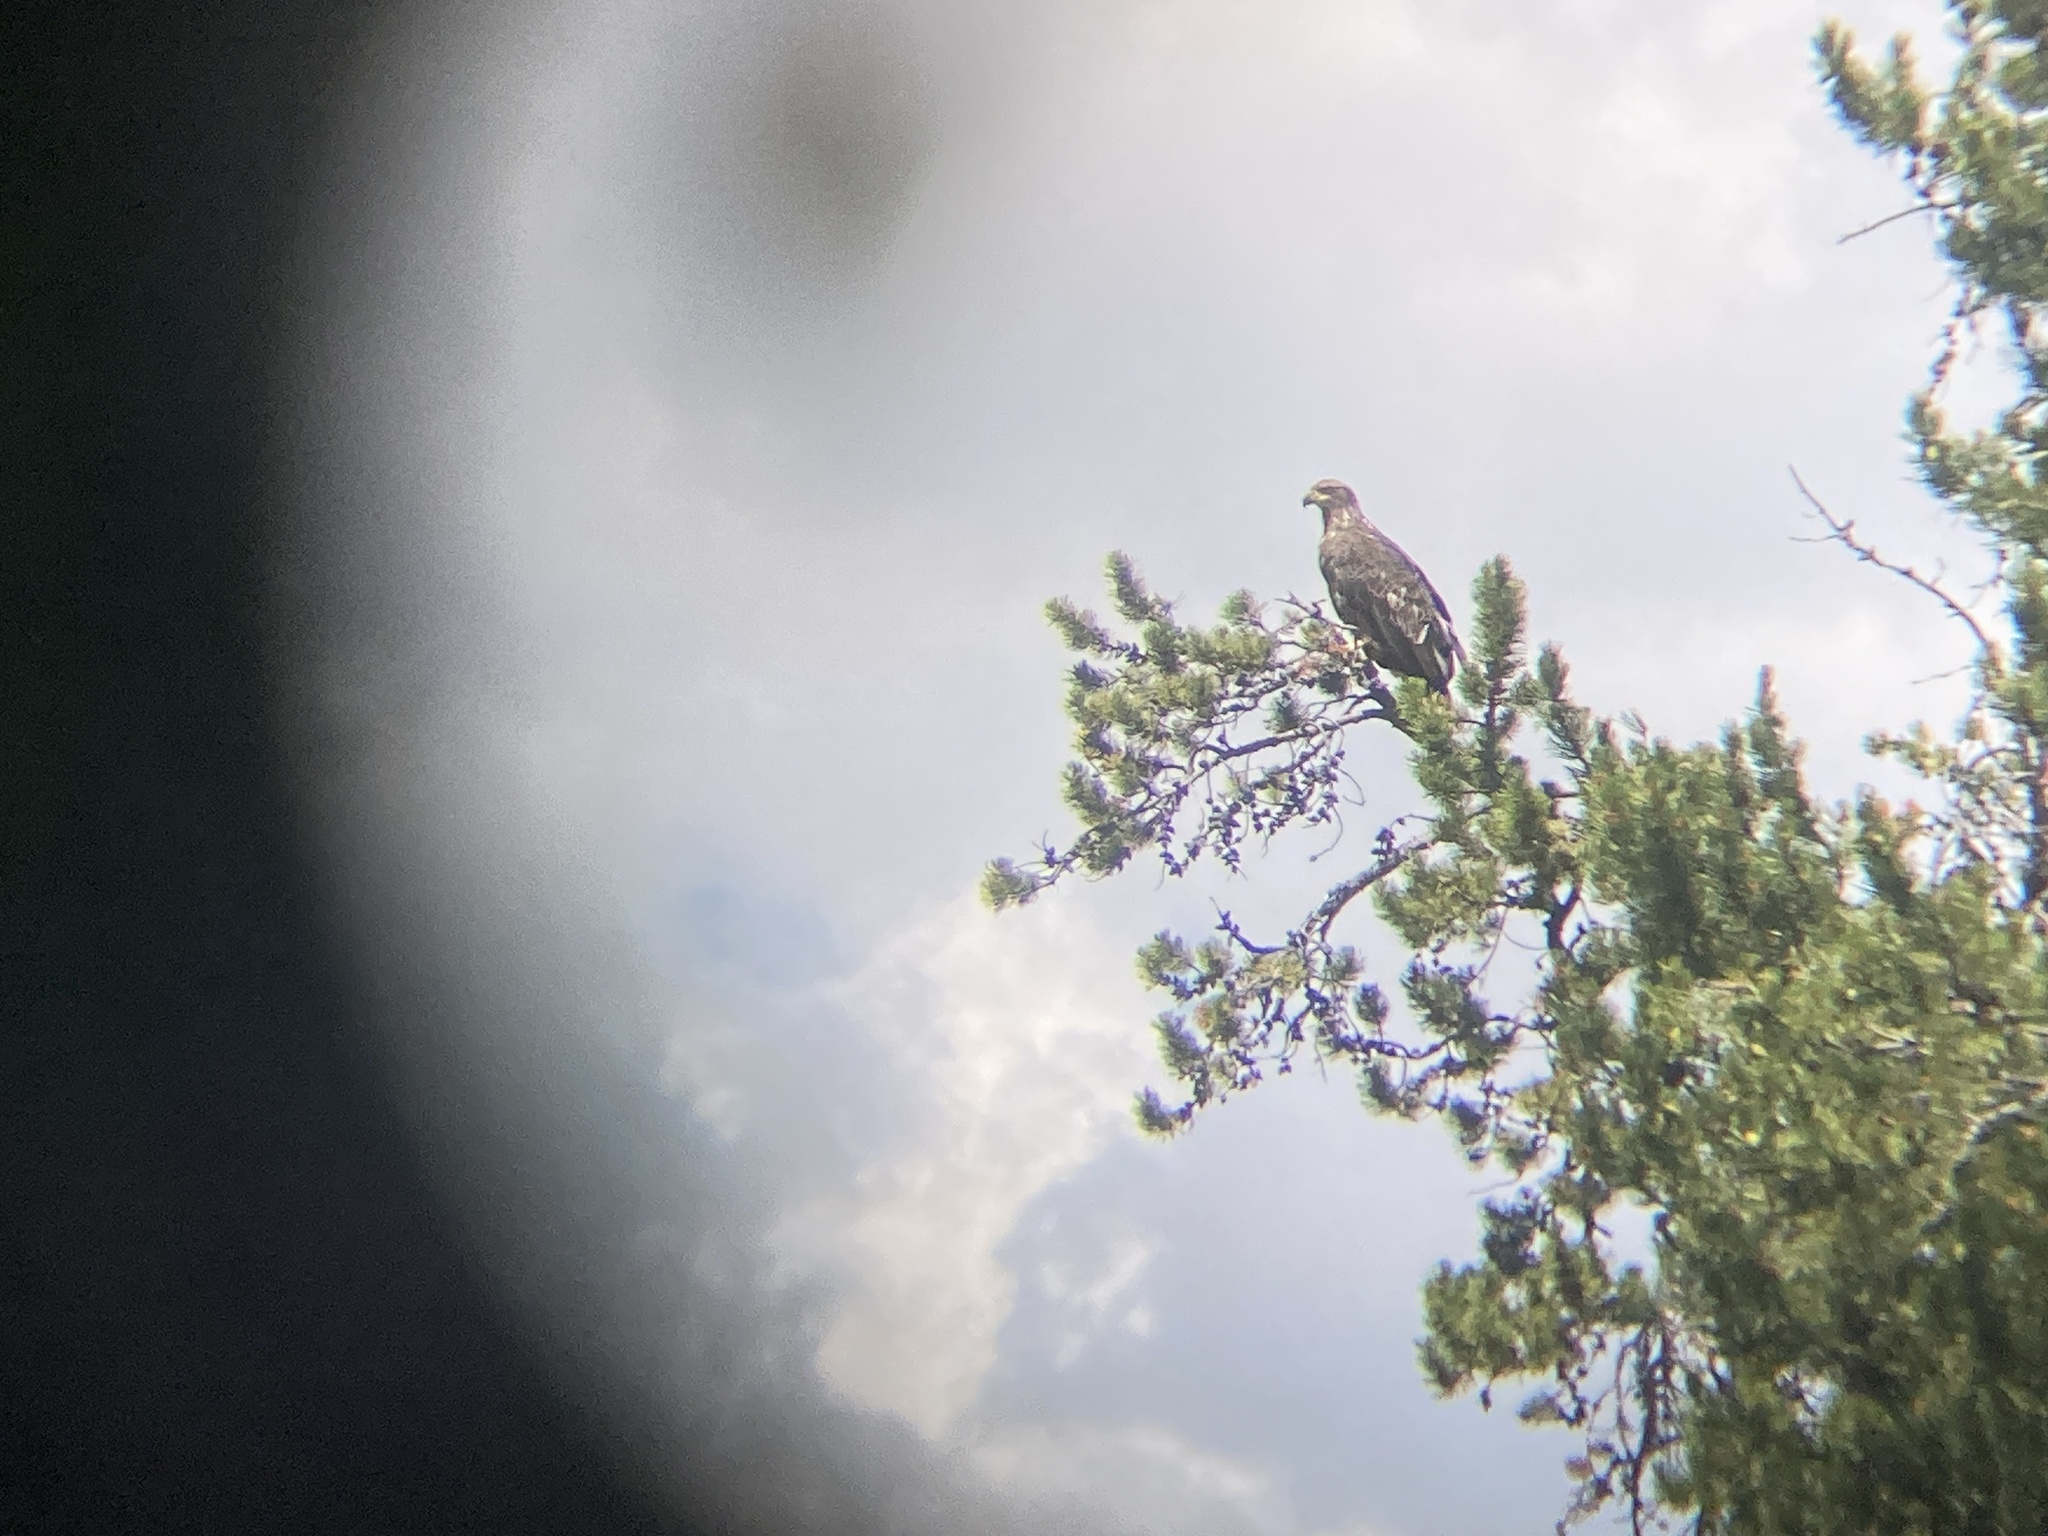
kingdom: Animalia
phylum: Chordata
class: Aves
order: Accipitriformes
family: Accipitridae
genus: Haliaeetus
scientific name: Haliaeetus leucocephalus
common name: Bald eagle
